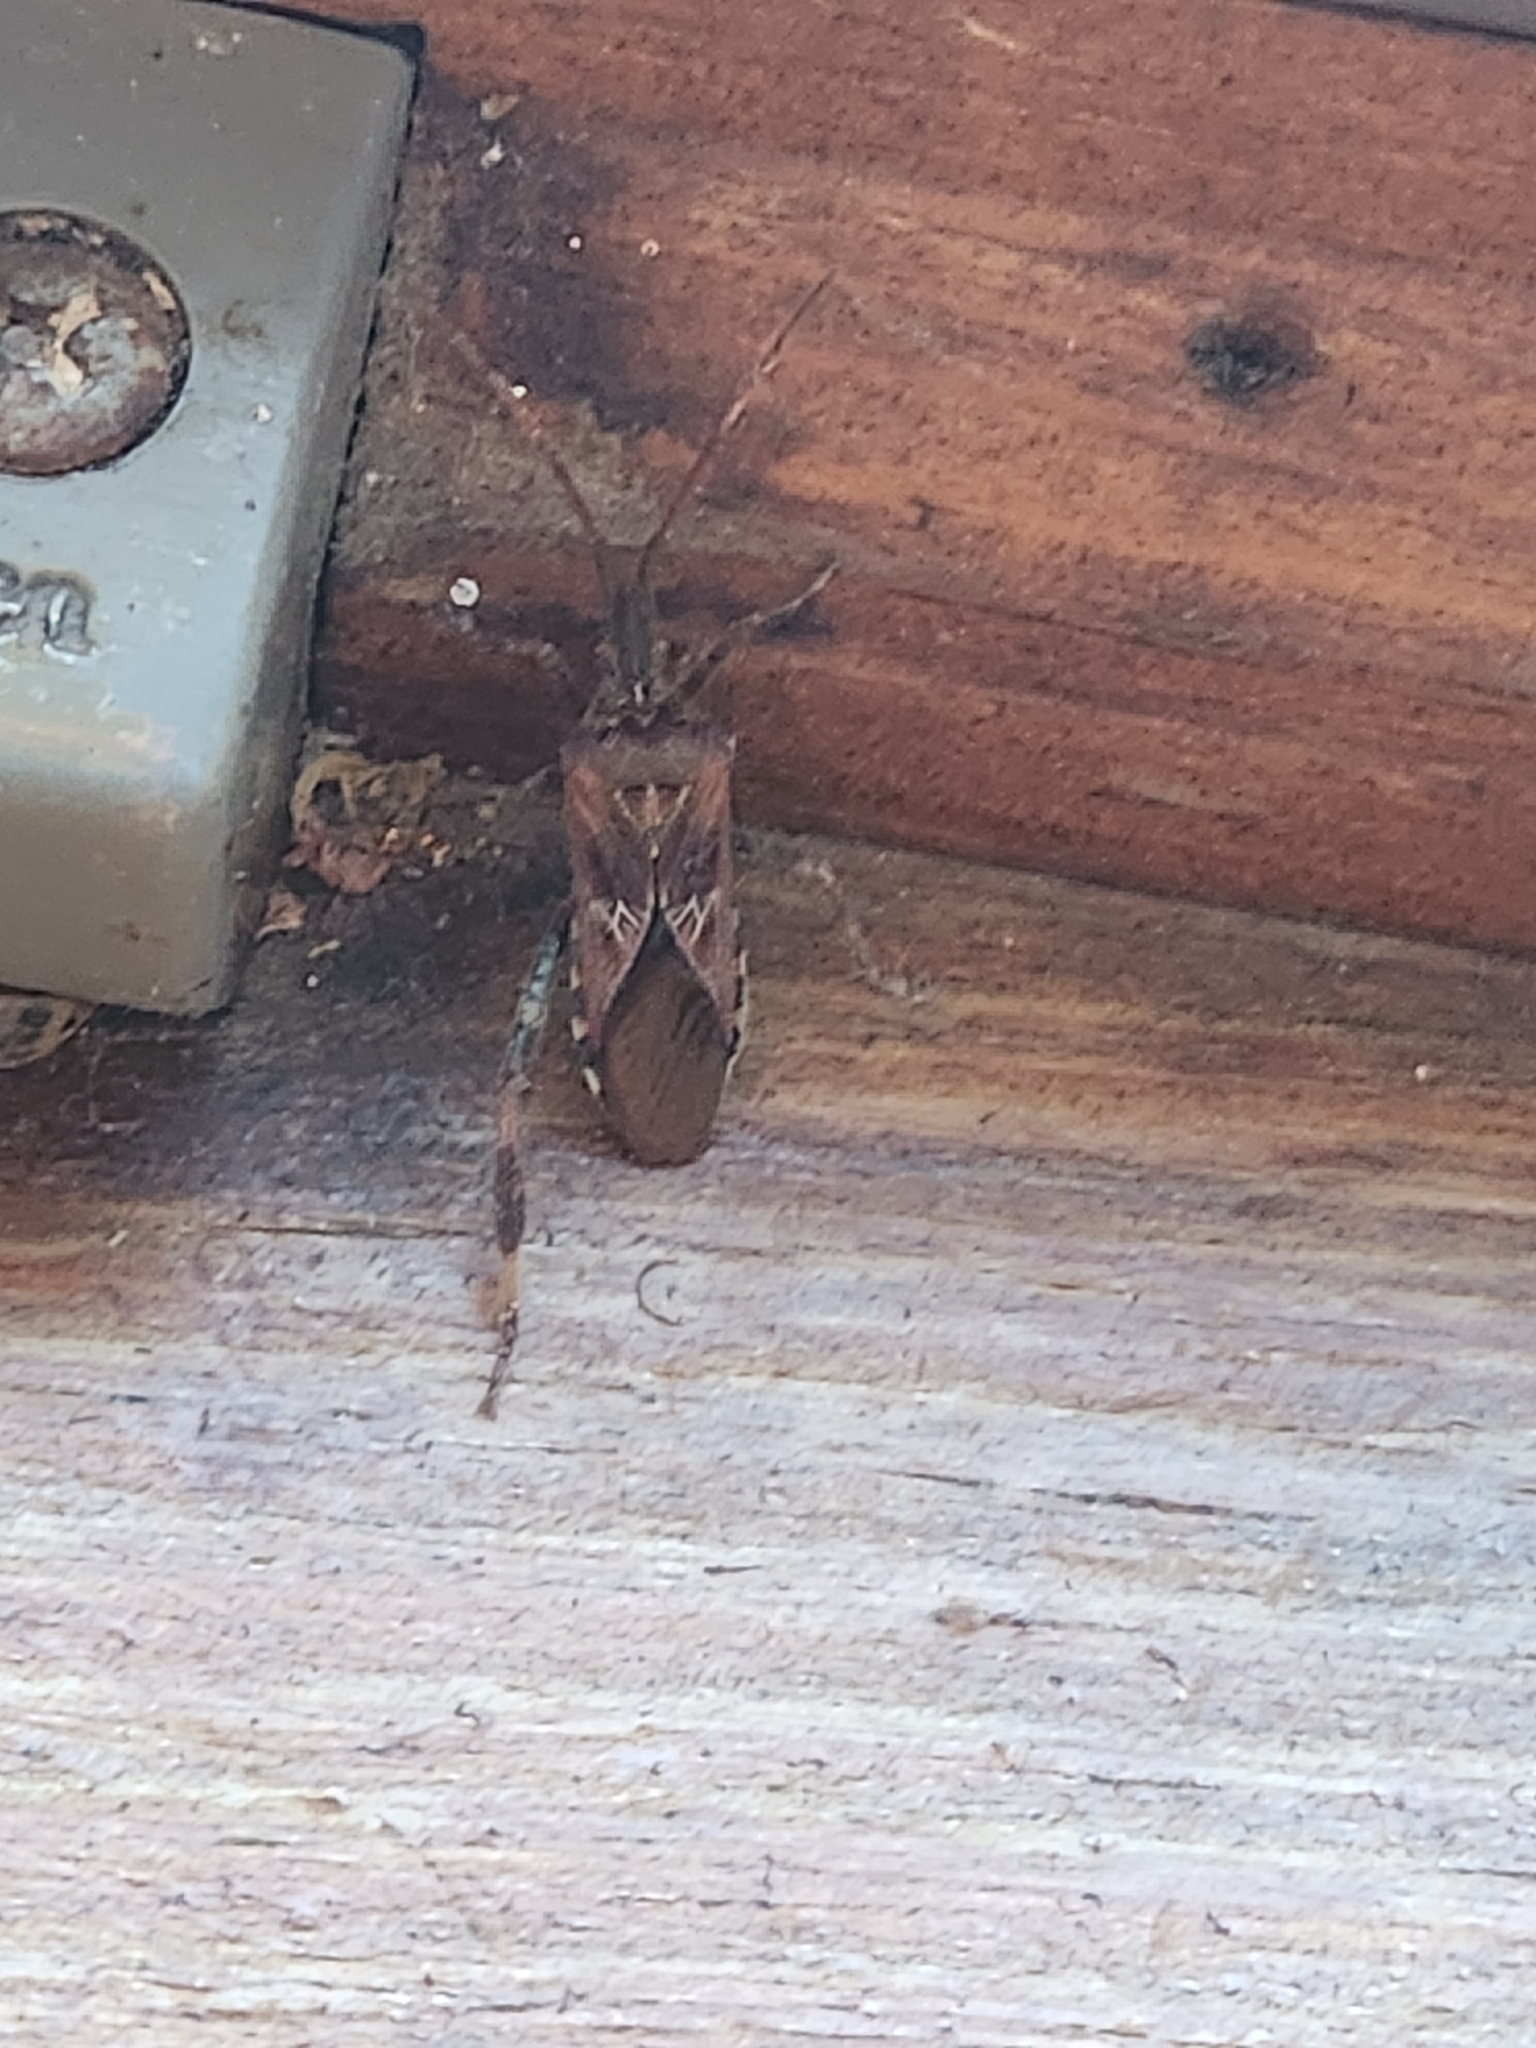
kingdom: Animalia
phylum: Arthropoda
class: Insecta
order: Hemiptera
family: Coreidae
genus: Leptoglossus
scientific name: Leptoglossus occidentalis
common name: Western conifer-seed bug
